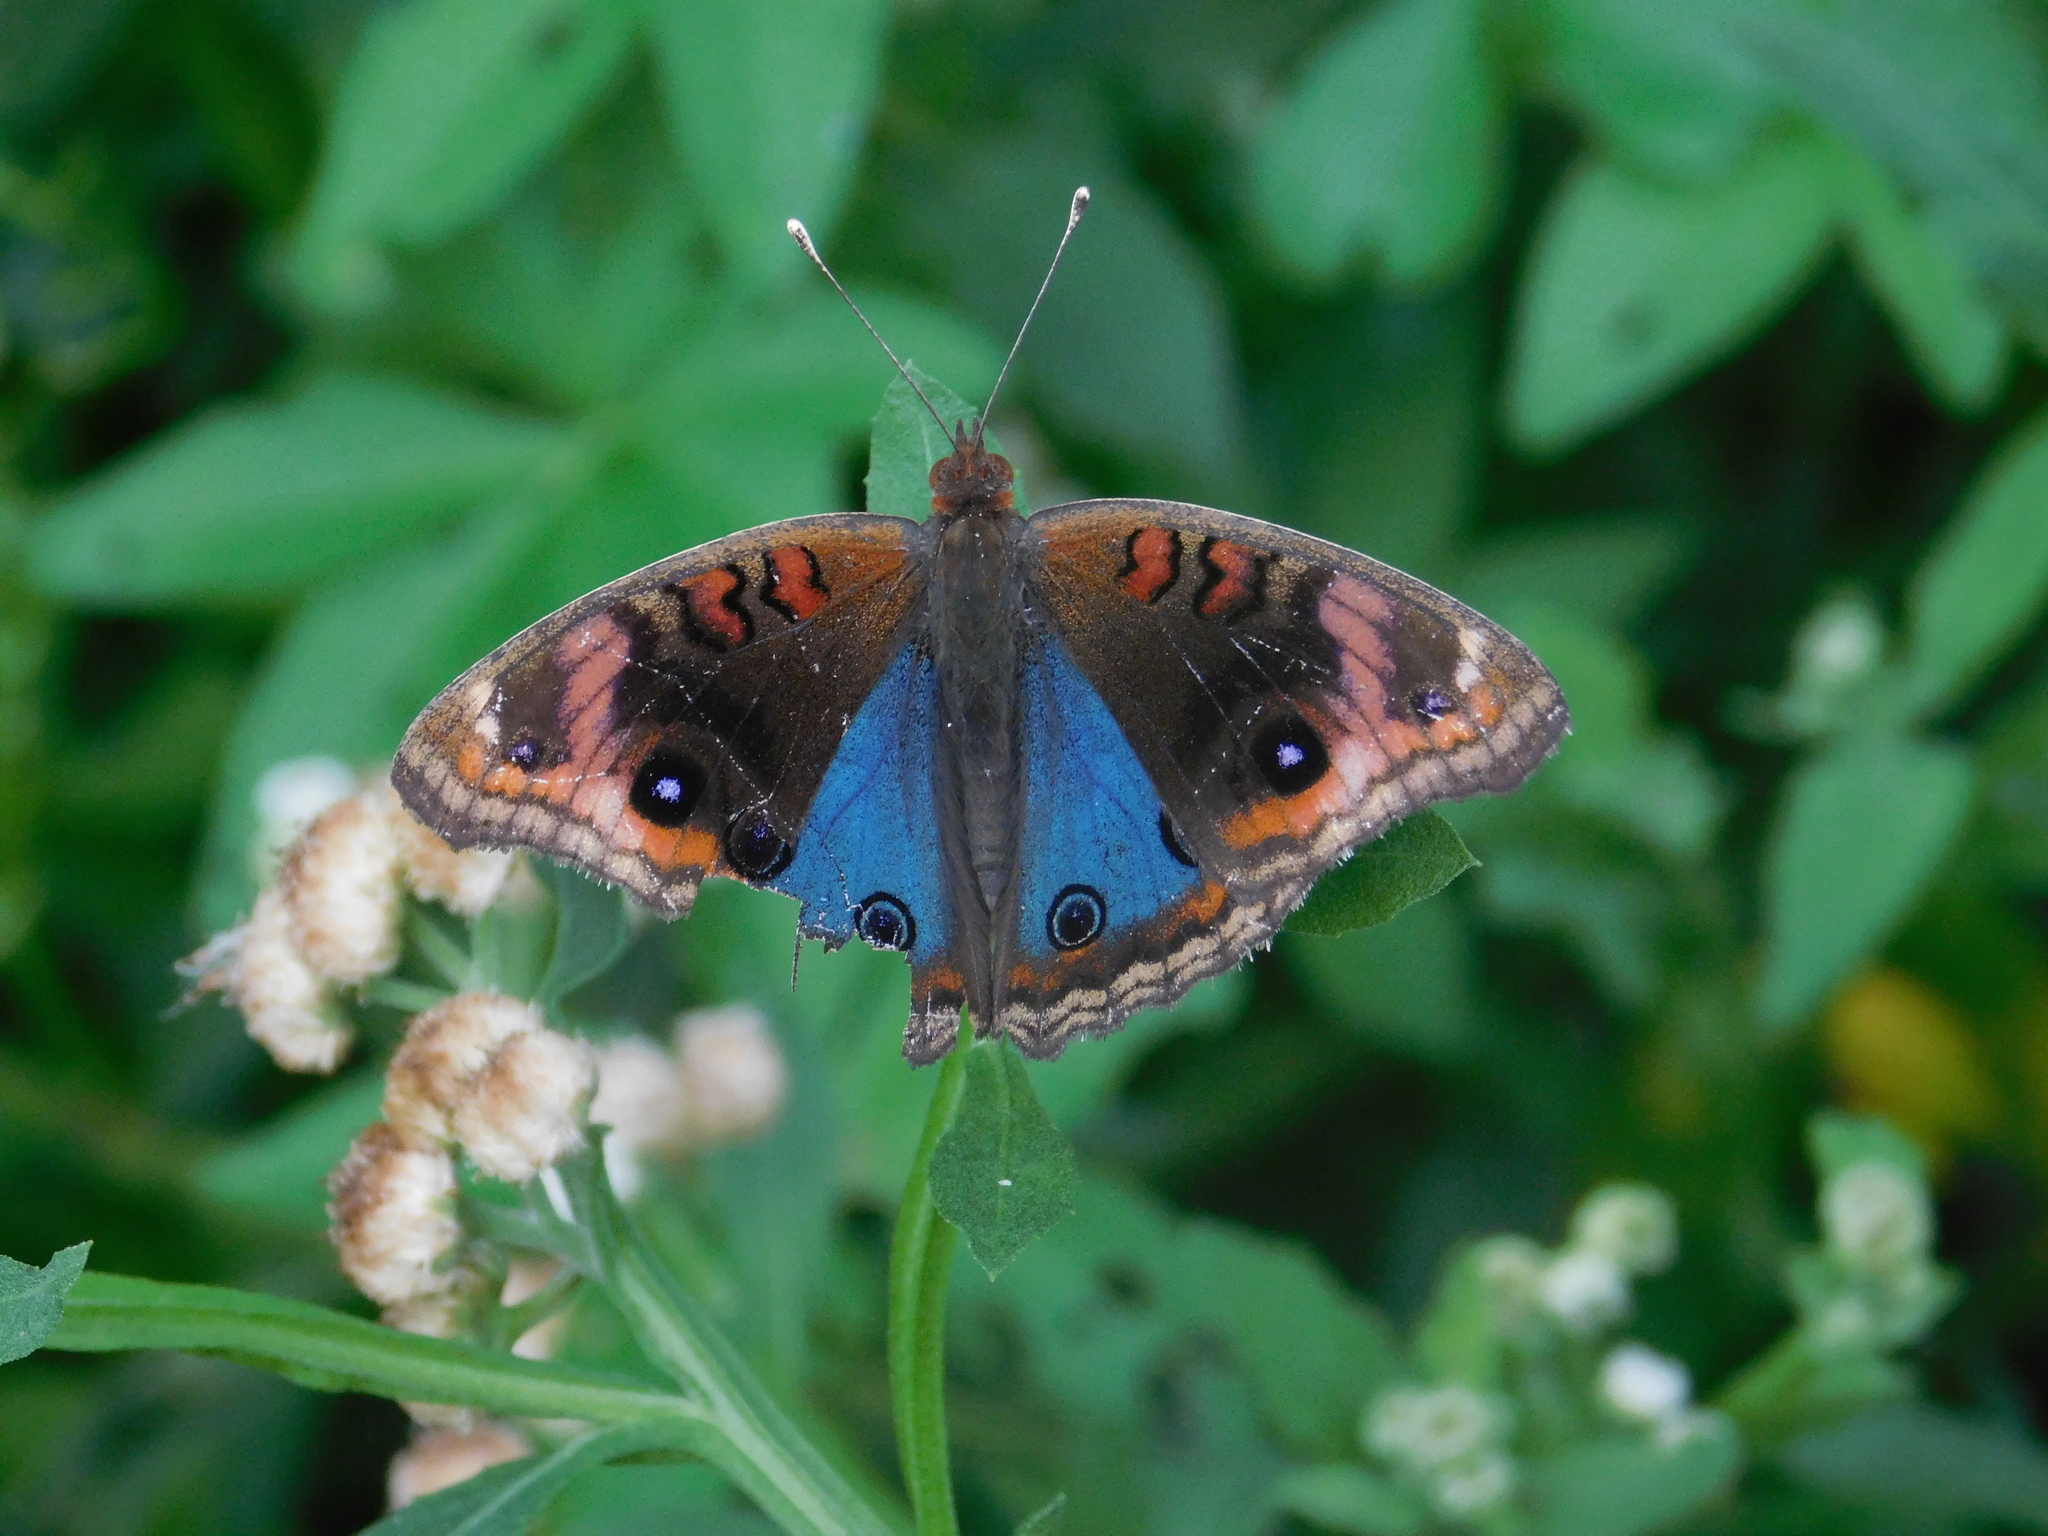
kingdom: Animalia
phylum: Arthropoda
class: Insecta
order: Lepidoptera
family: Nymphalidae
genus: Junonia
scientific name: Junonia lavinia
